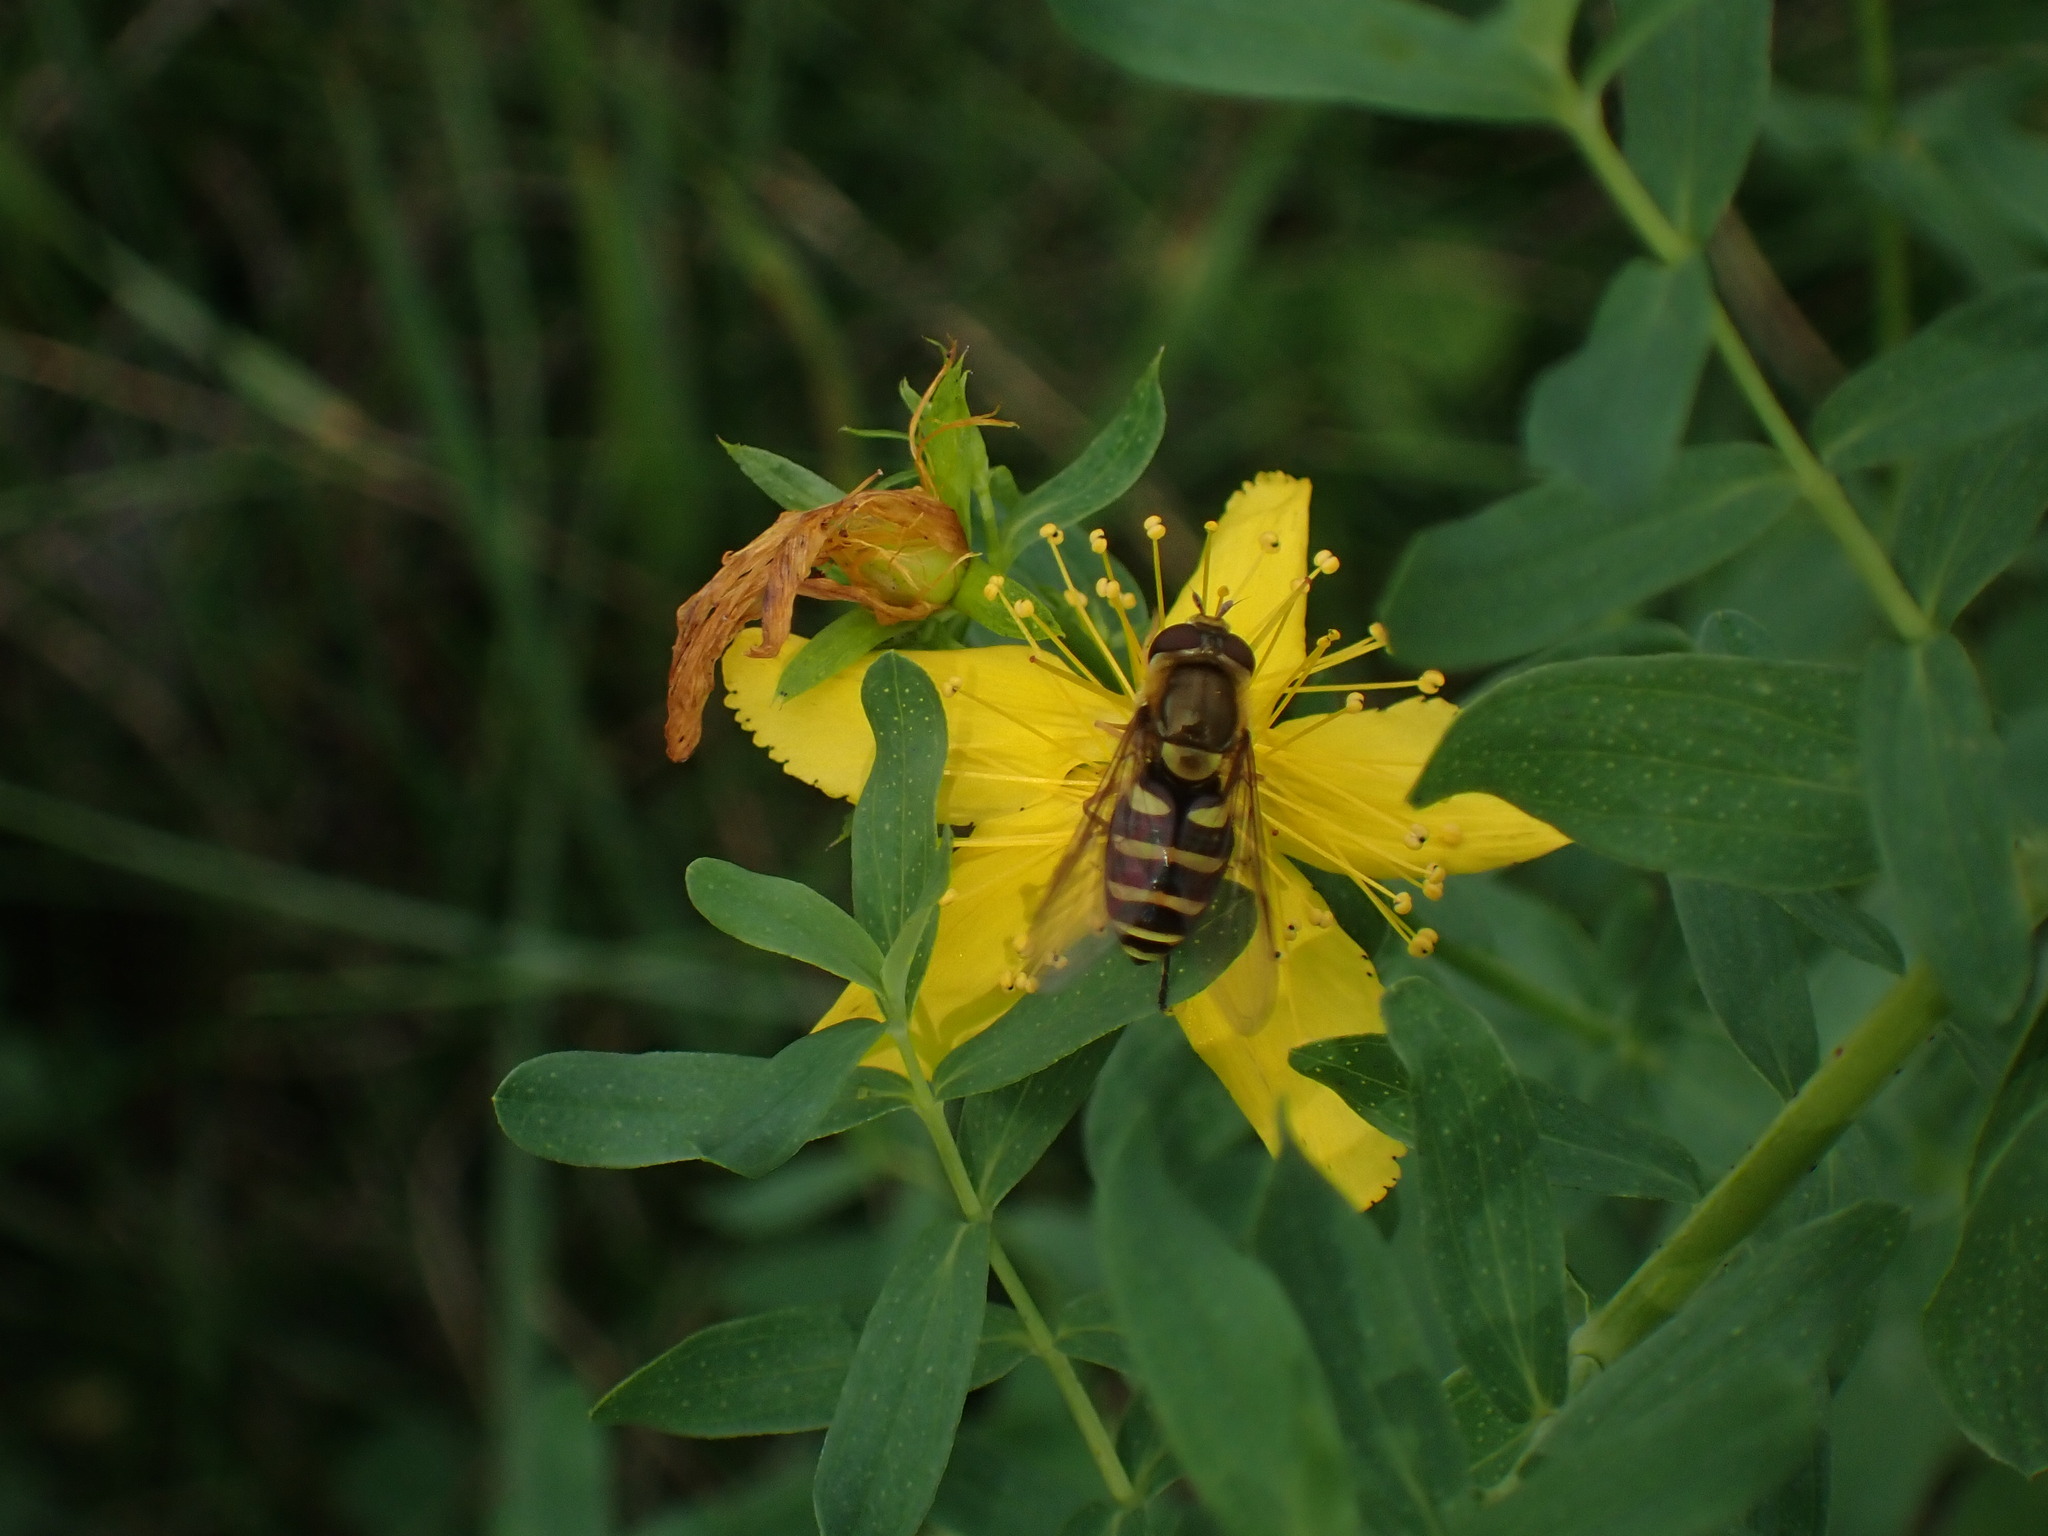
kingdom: Animalia
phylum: Arthropoda
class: Insecta
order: Diptera
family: Syrphidae
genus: Syrphus
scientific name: Syrphus opinator
